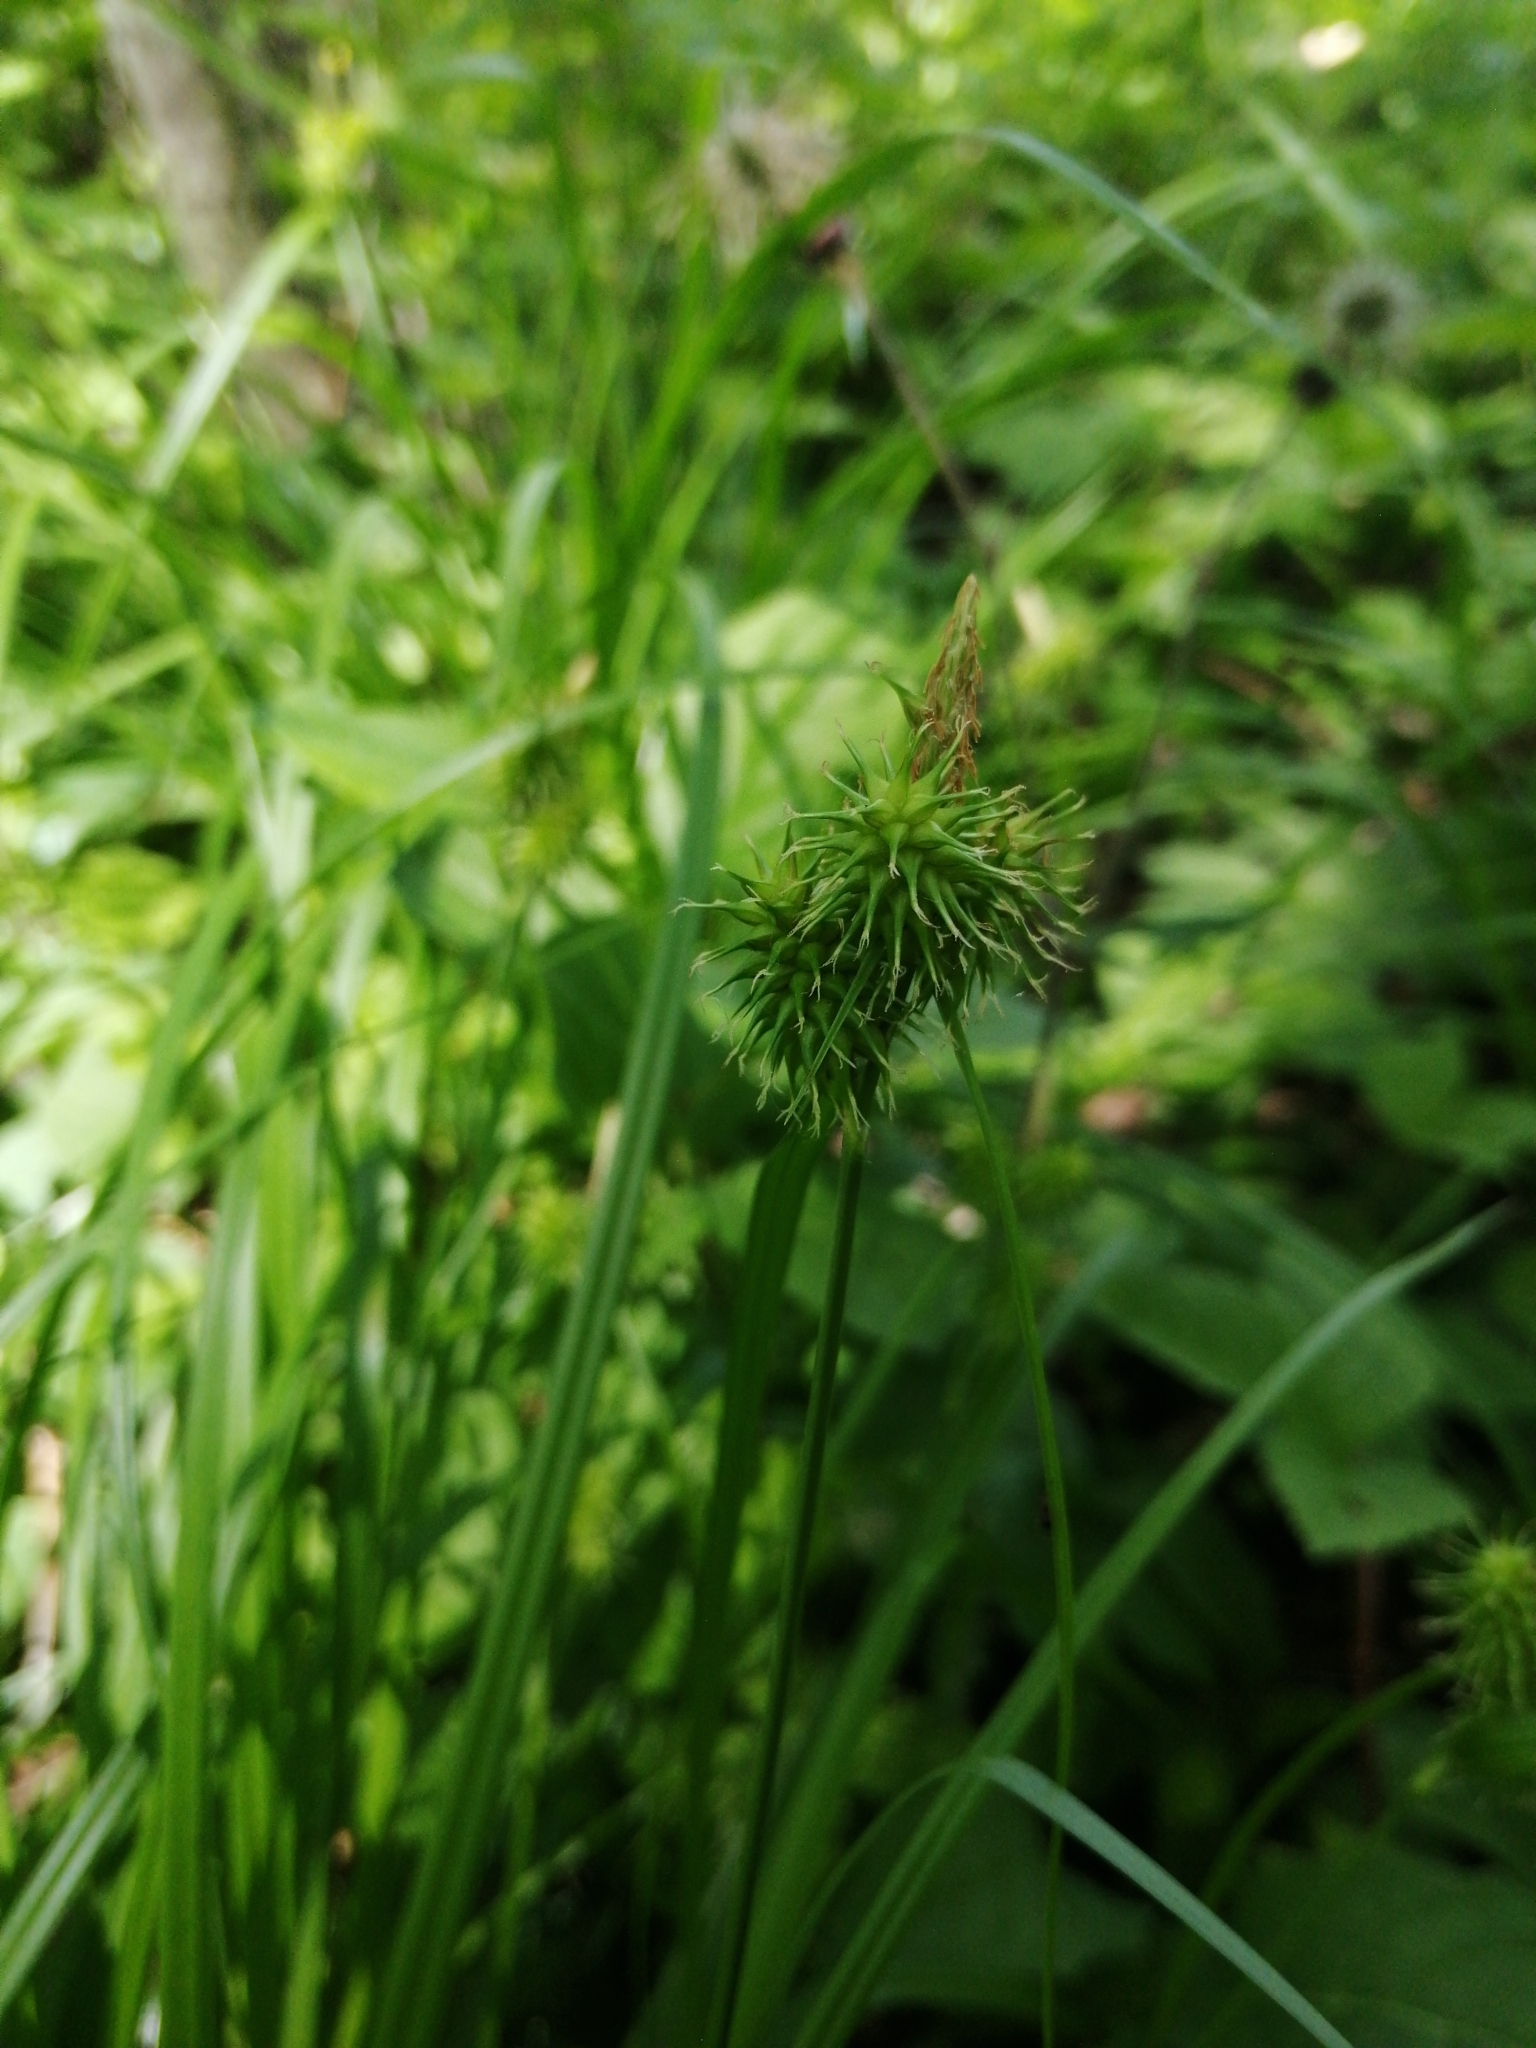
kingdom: Plantae
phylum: Tracheophyta
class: Liliopsida
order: Poales
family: Cyperaceae
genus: Carex
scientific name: Carex flava
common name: Large yellow-sedge
